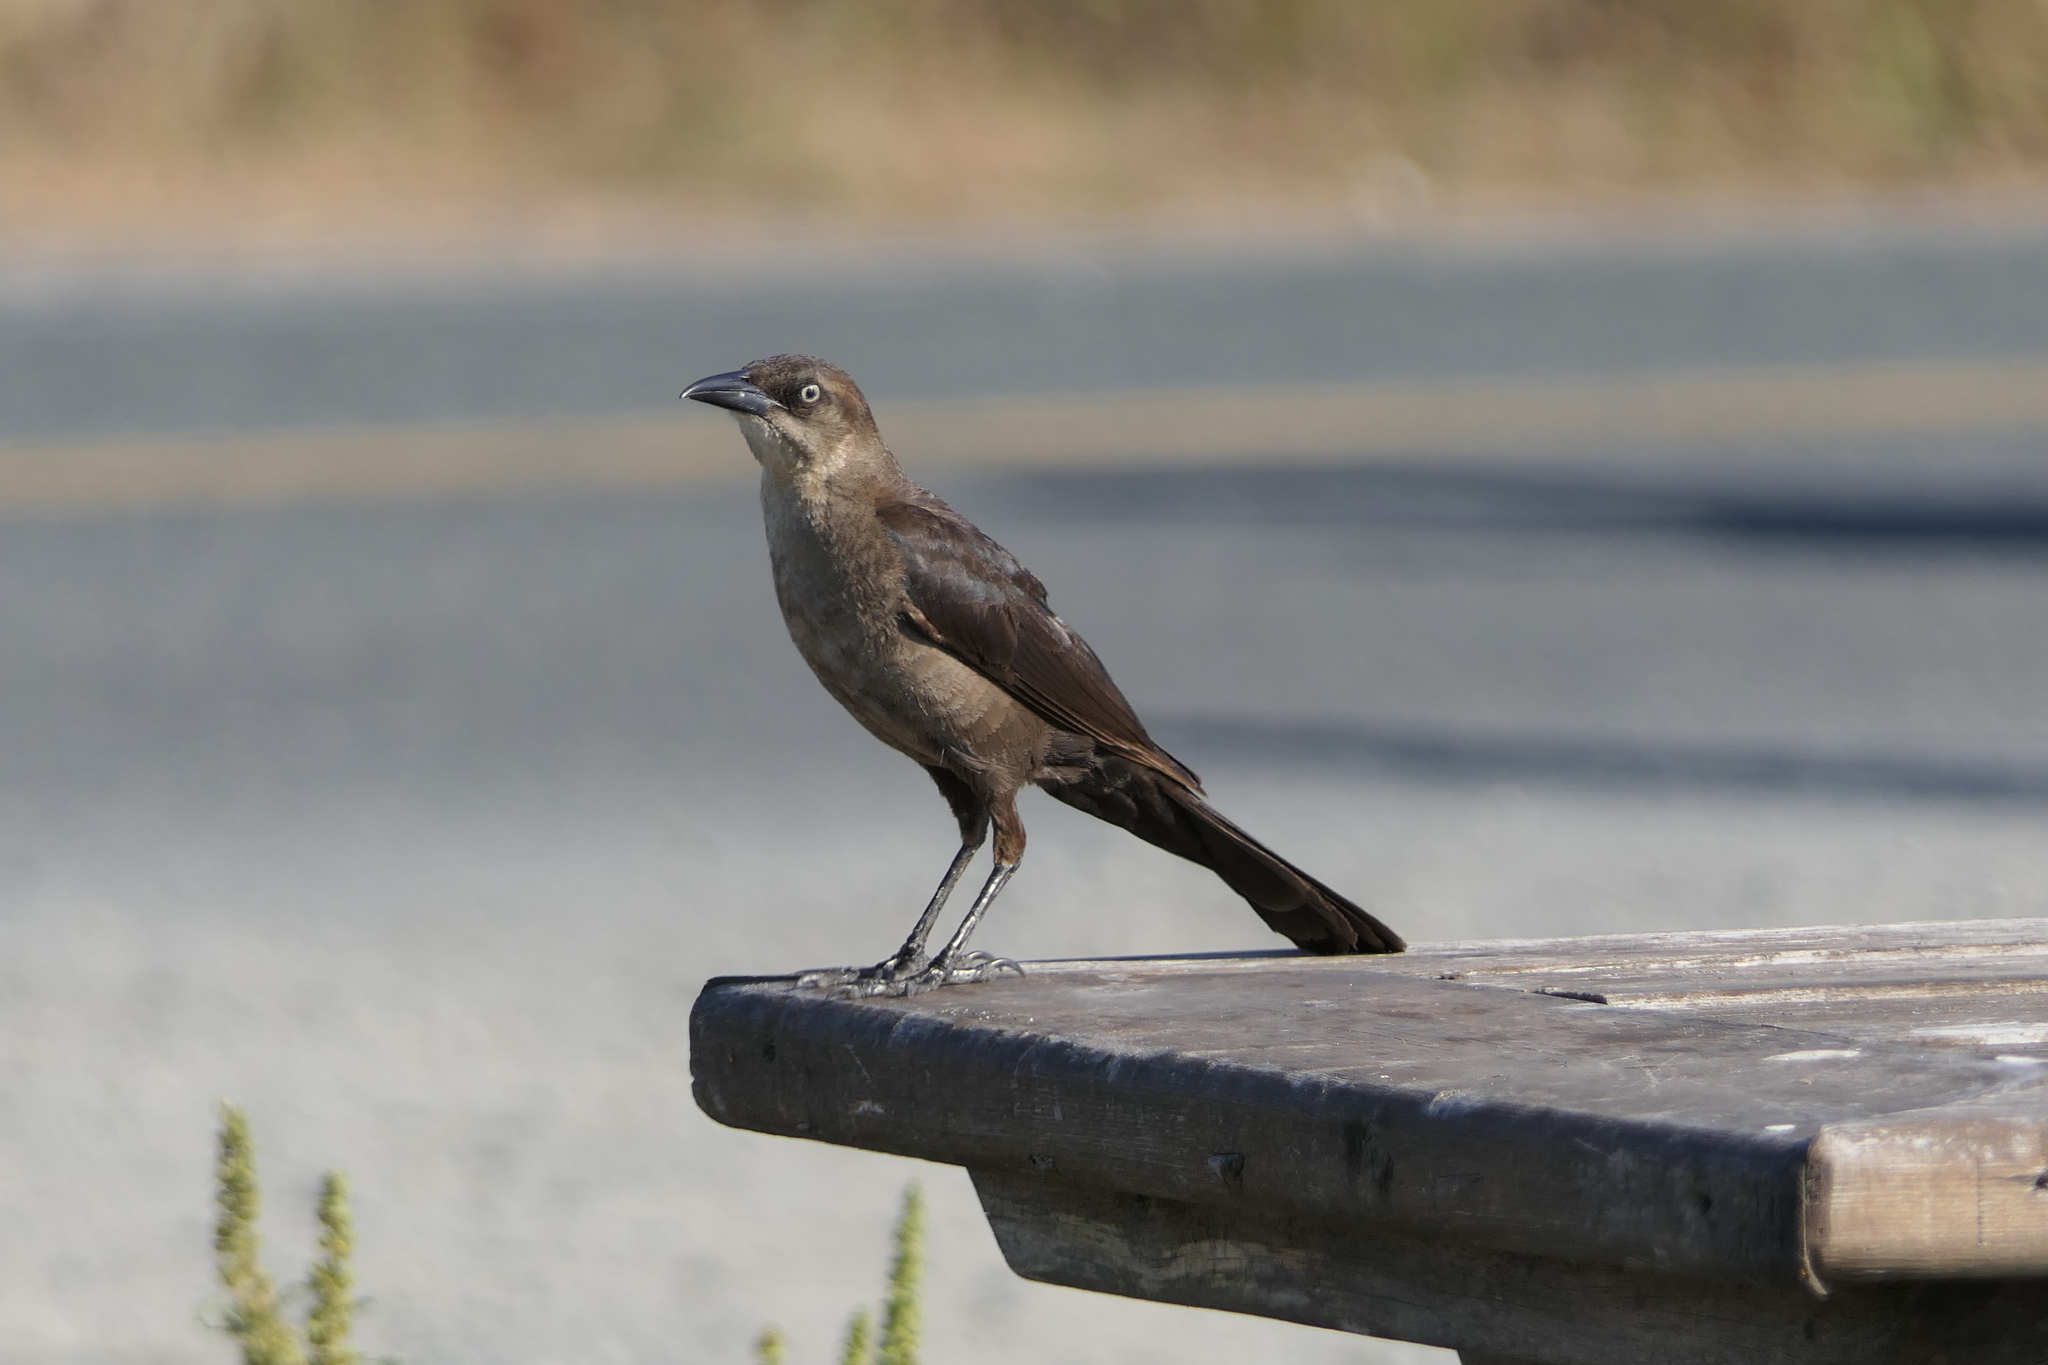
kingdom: Animalia
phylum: Chordata
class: Aves
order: Passeriformes
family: Icteridae
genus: Quiscalus
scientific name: Quiscalus mexicanus
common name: Great-tailed grackle
